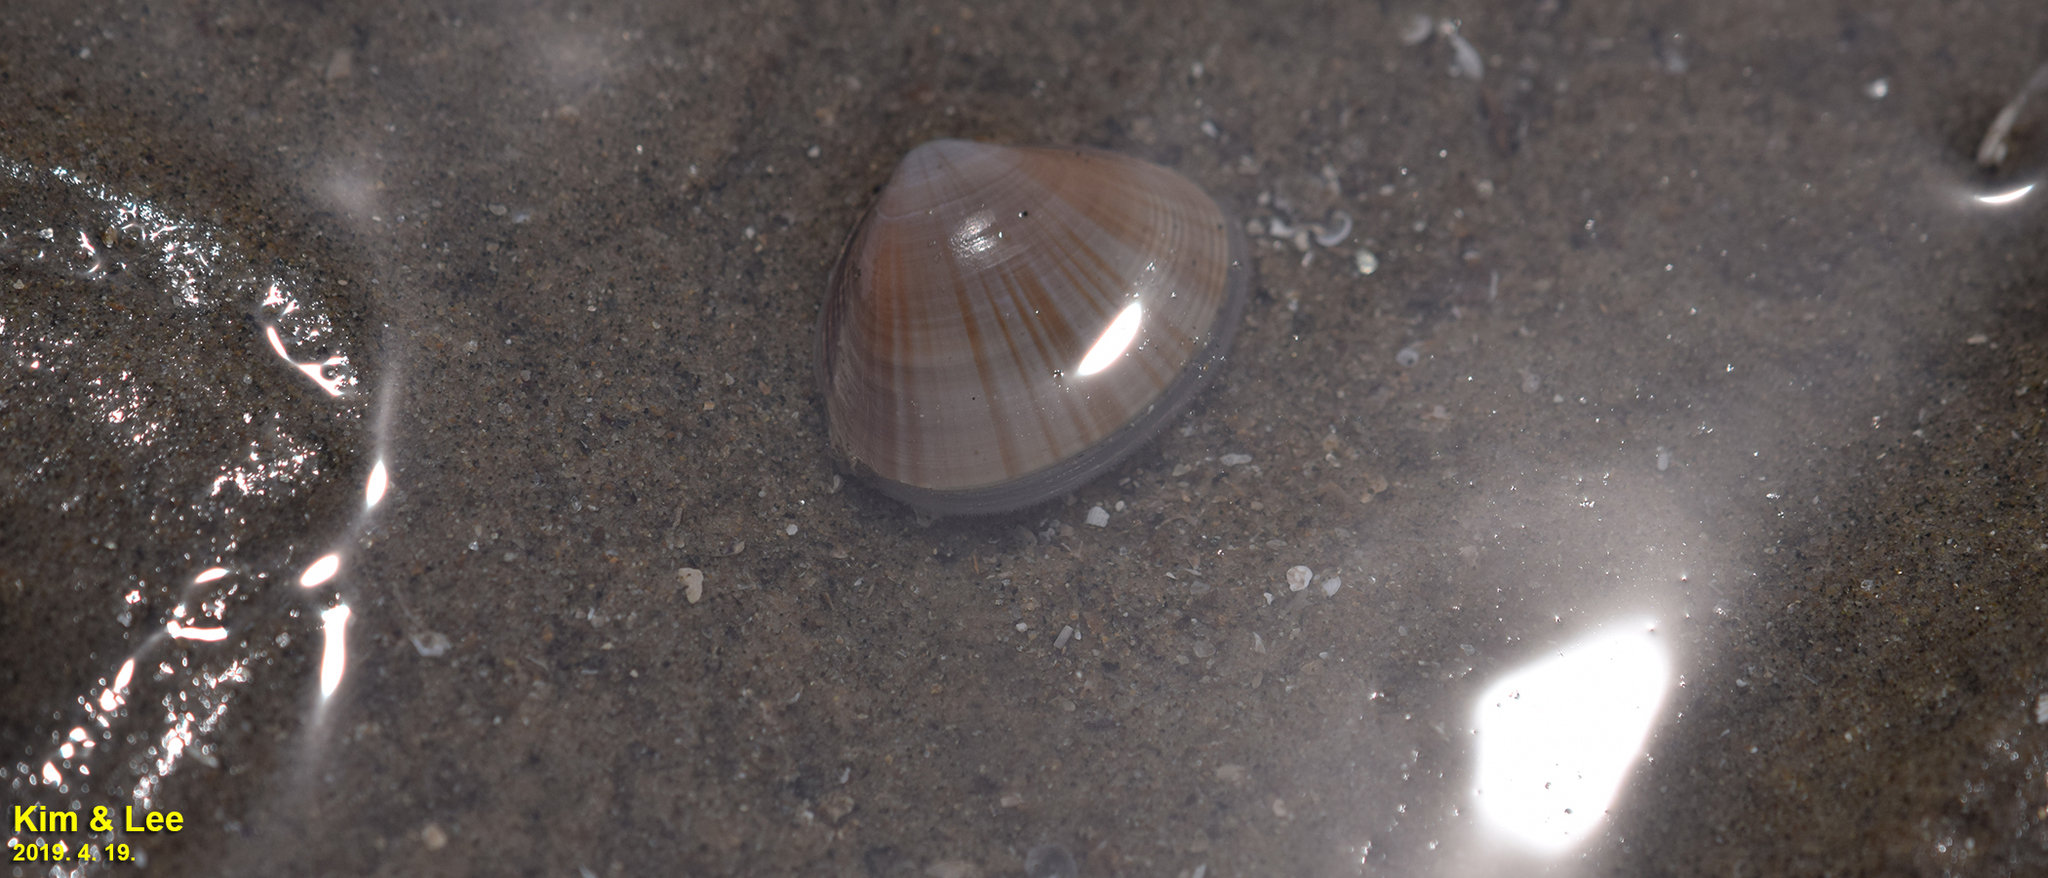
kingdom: Animalia
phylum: Mollusca
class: Bivalvia
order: Venerida
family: Mactridae
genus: Mactra
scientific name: Mactra chinensis
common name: Chinese surf clam
